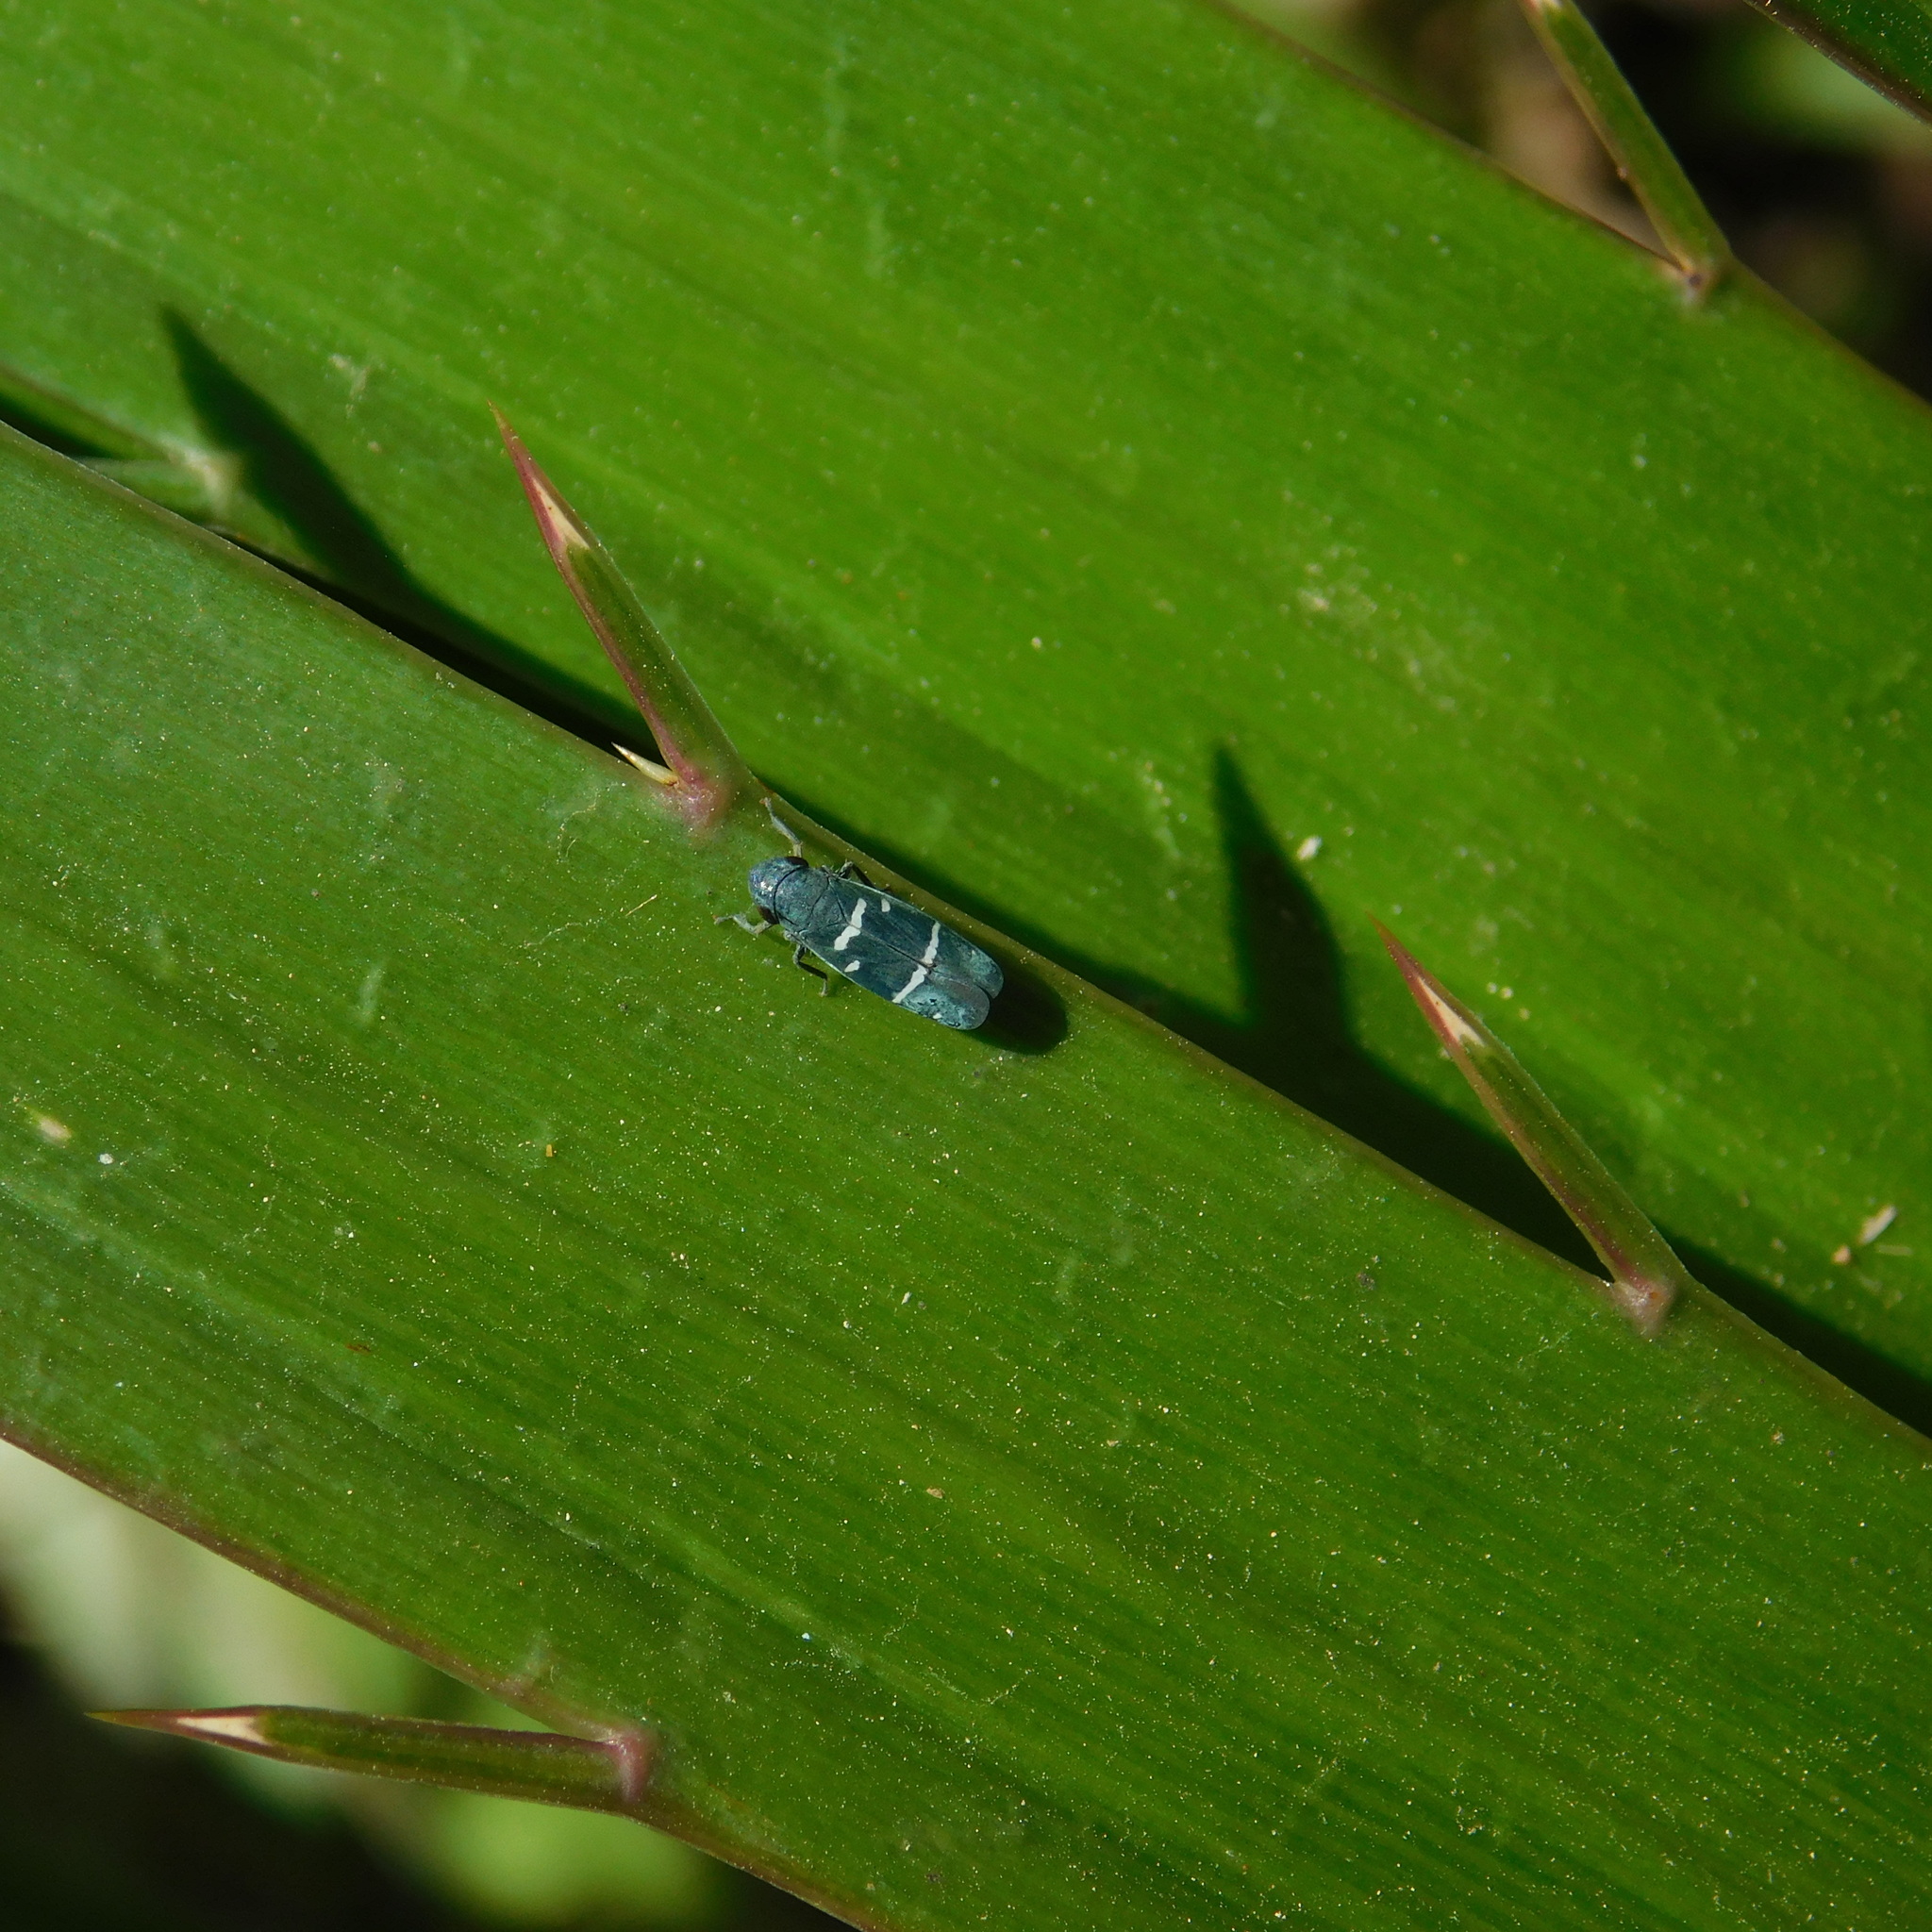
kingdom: Animalia
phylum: Arthropoda
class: Insecta
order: Hemiptera
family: Cicadellidae
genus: Balacha
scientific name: Balacha similis
